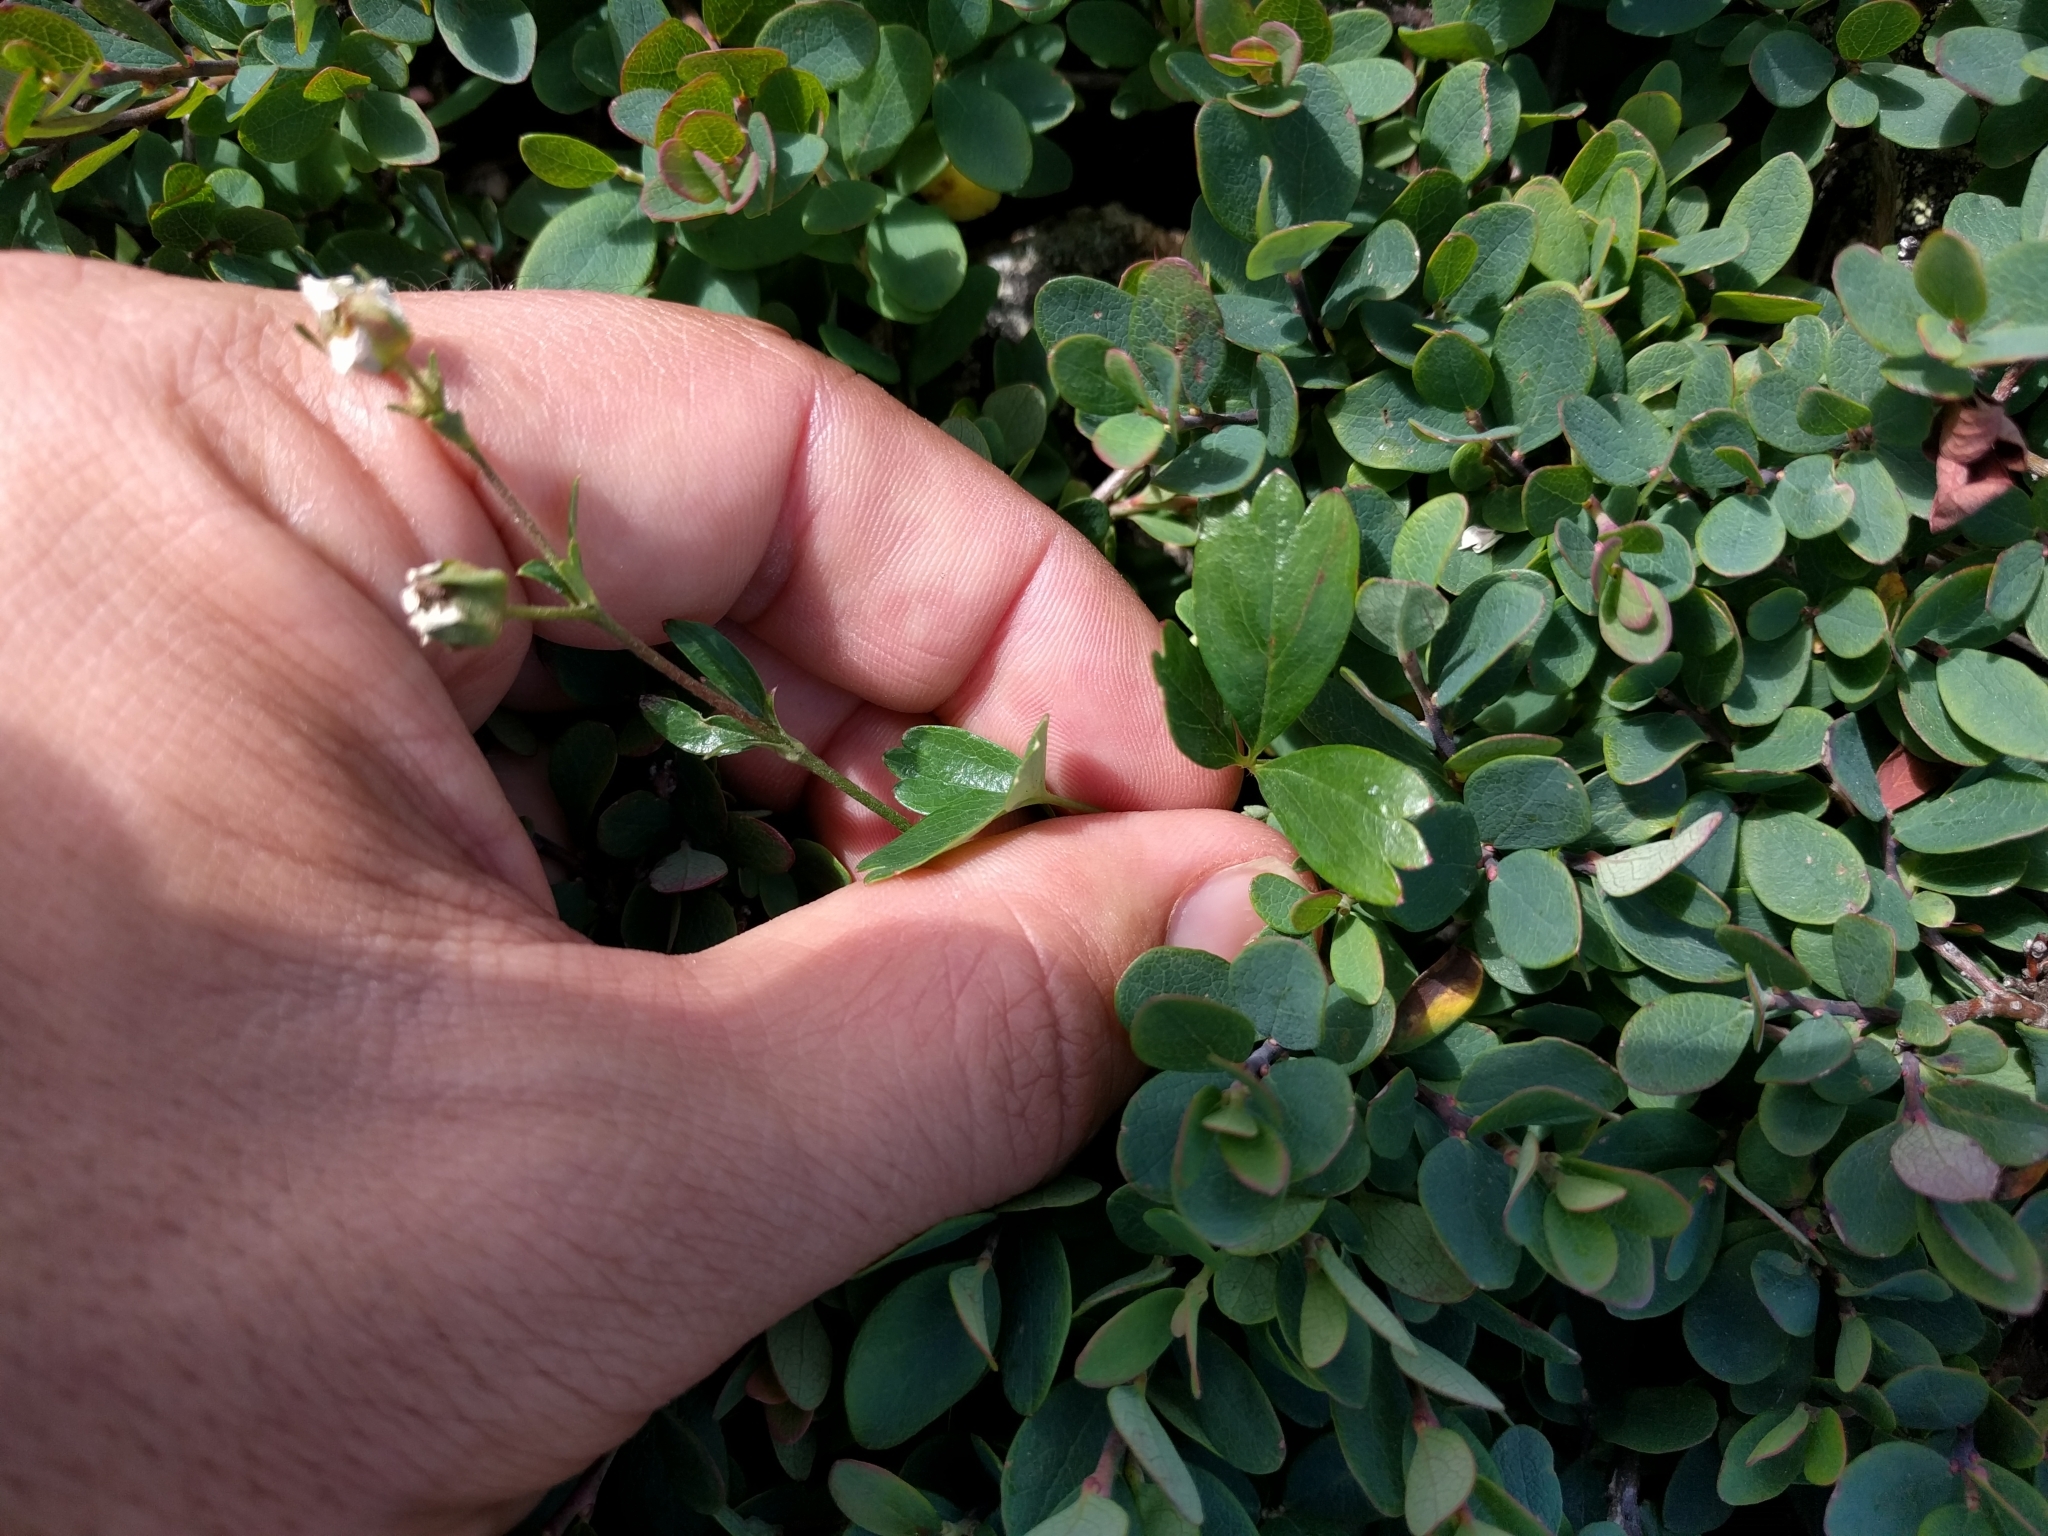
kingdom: Plantae
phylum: Tracheophyta
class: Magnoliopsida
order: Rosales
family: Rosaceae
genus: Sibbaldia
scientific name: Sibbaldia tridentata
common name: Three-toothed cinquefoil
